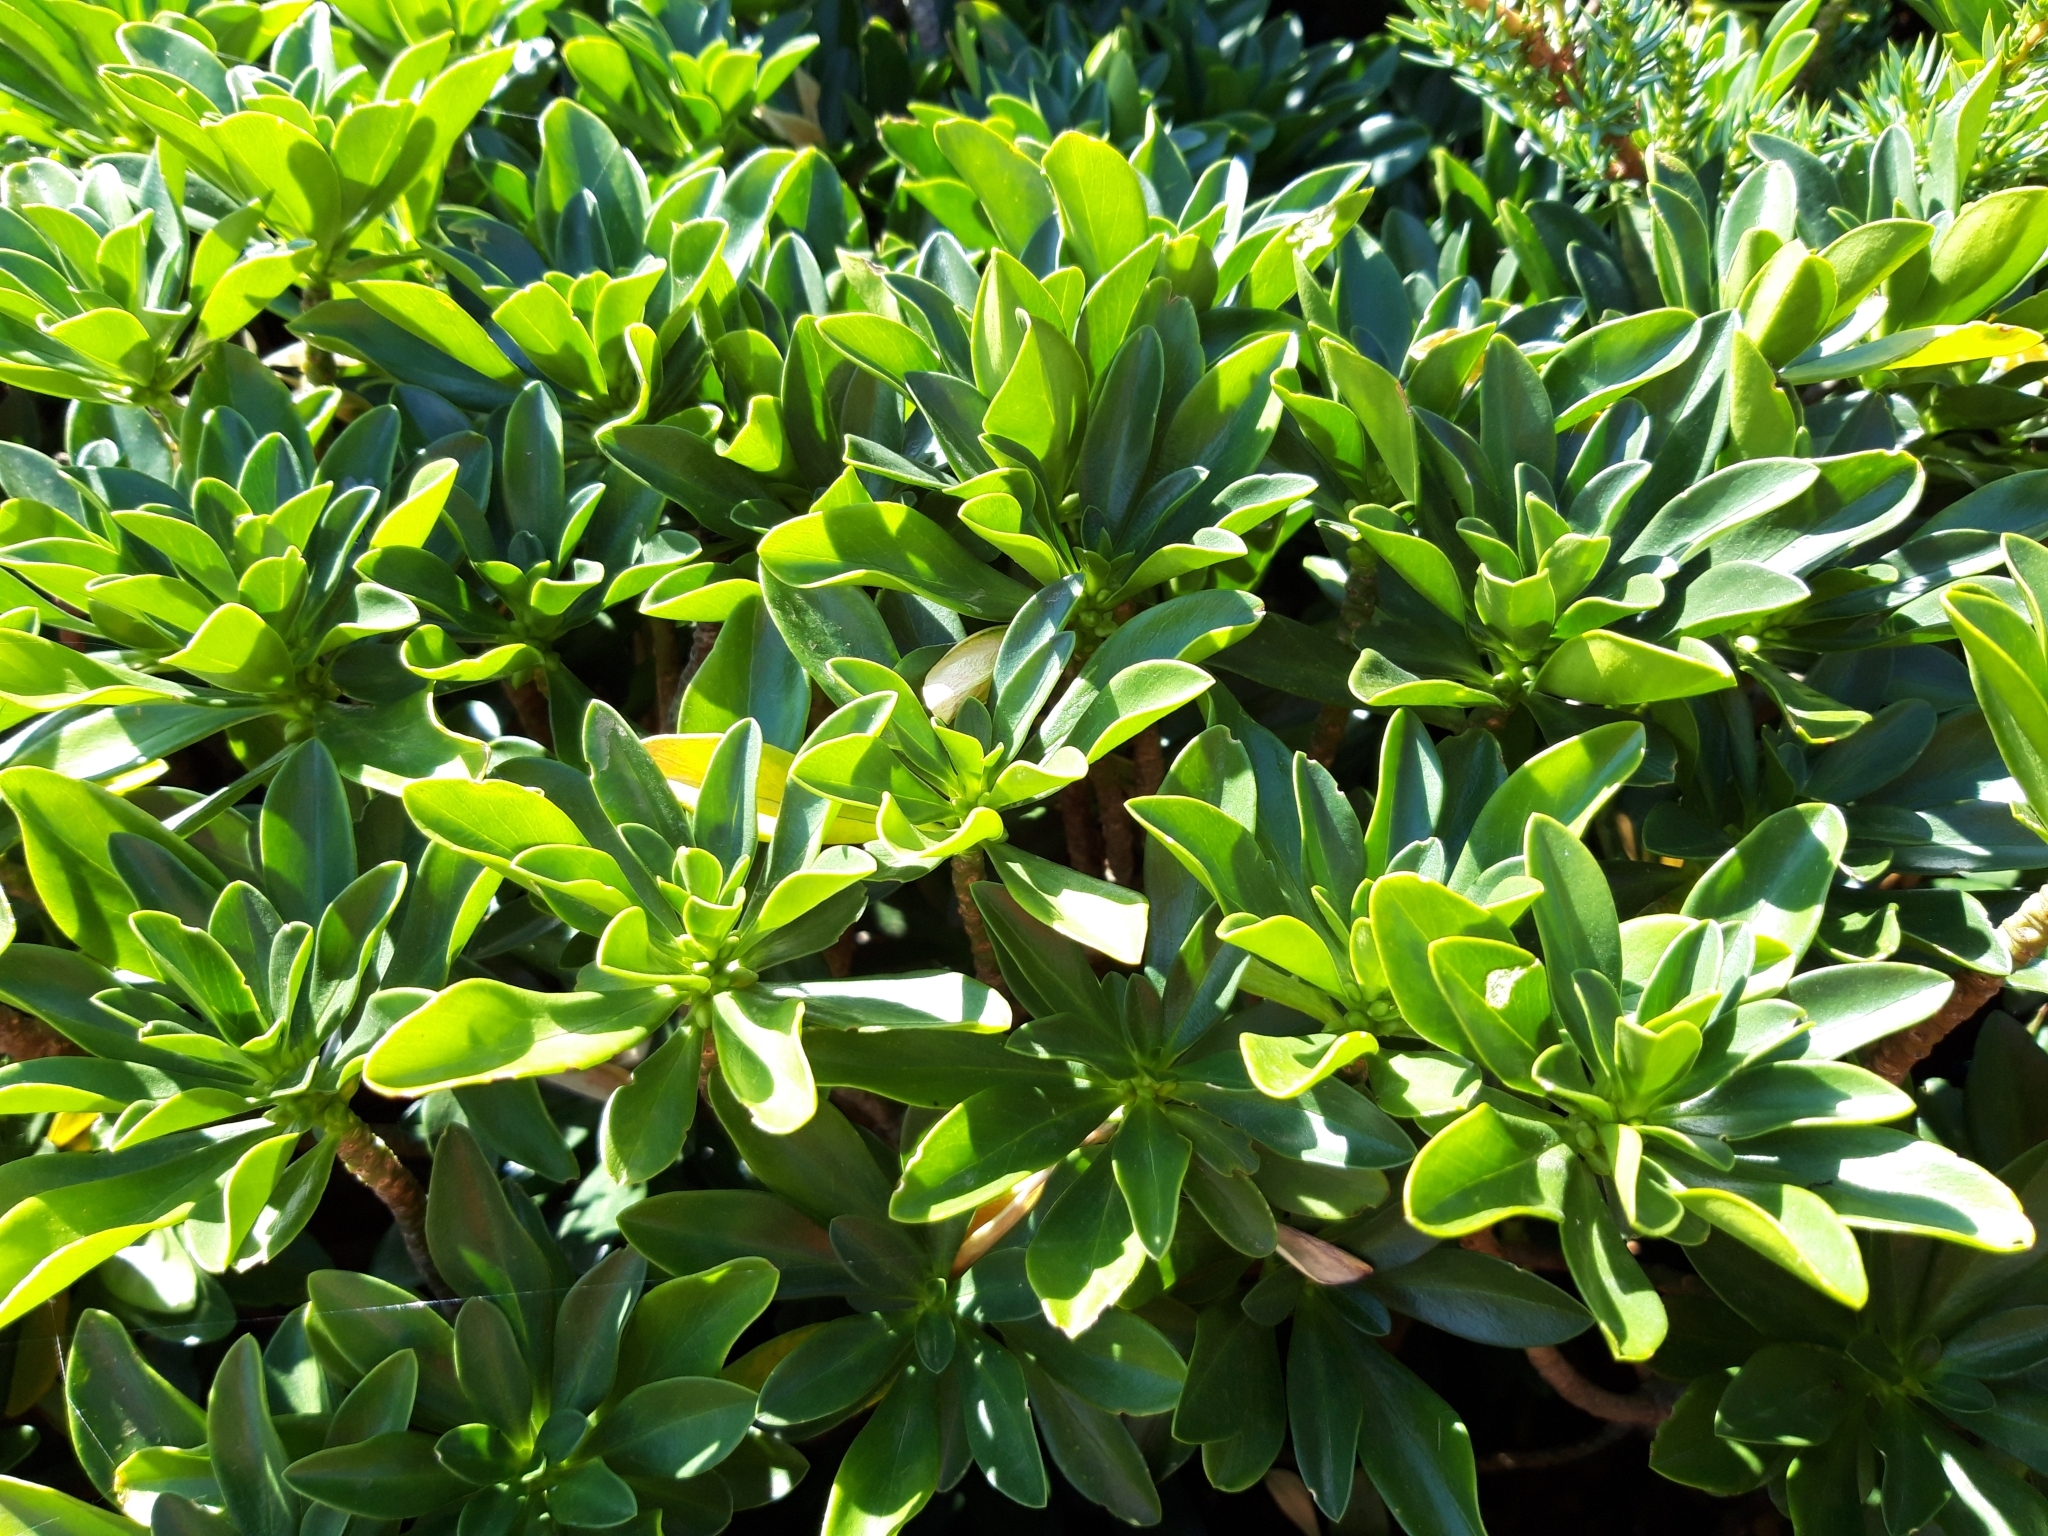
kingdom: Plantae
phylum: Tracheophyta
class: Magnoliopsida
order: Malvales
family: Thymelaeaceae
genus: Daphne
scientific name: Daphne laureola
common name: Spurge-laurel
